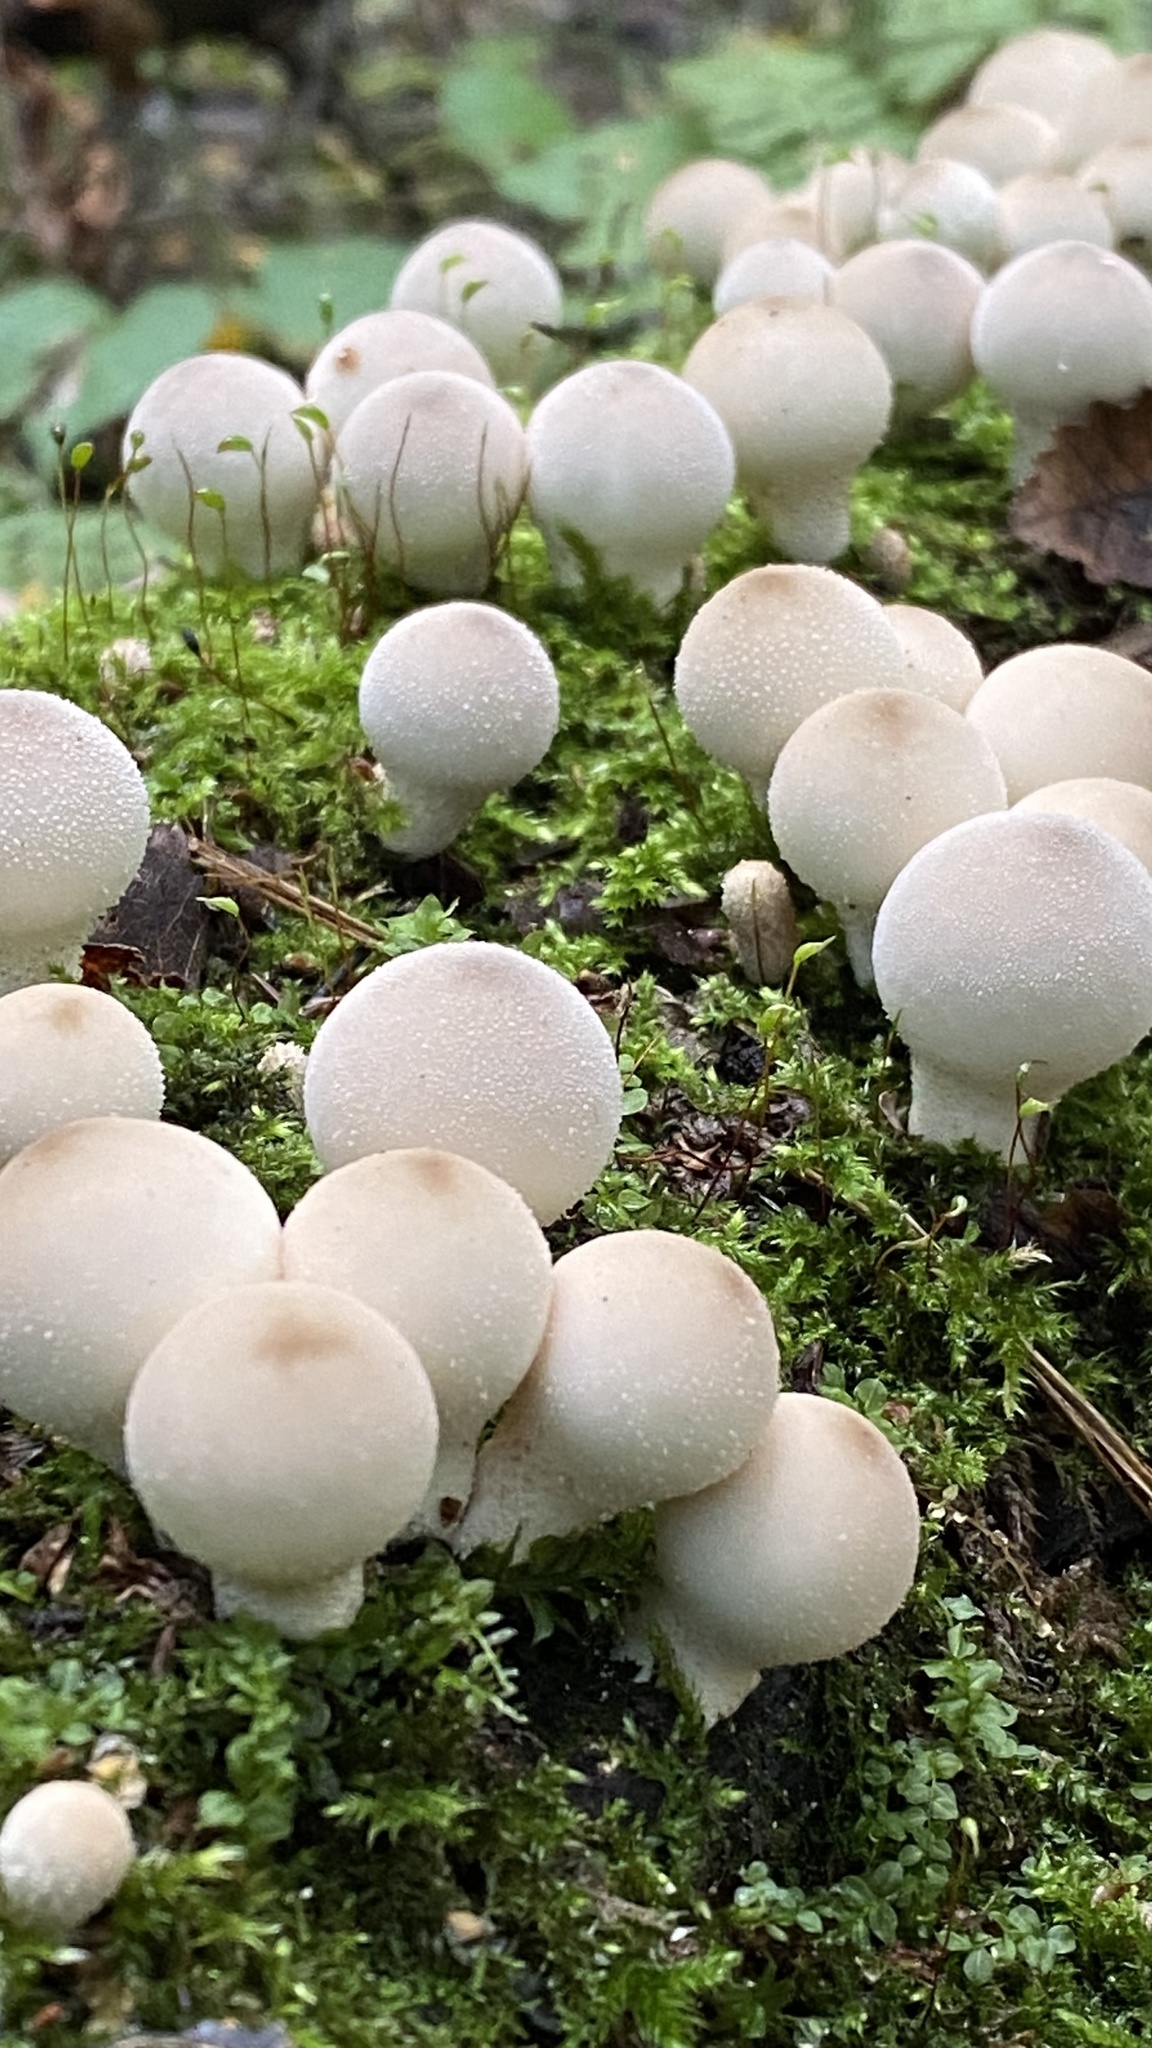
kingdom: Fungi
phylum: Basidiomycota
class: Agaricomycetes
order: Agaricales
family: Lycoperdaceae
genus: Apioperdon
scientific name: Apioperdon pyriforme
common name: Pear-shaped puffball
